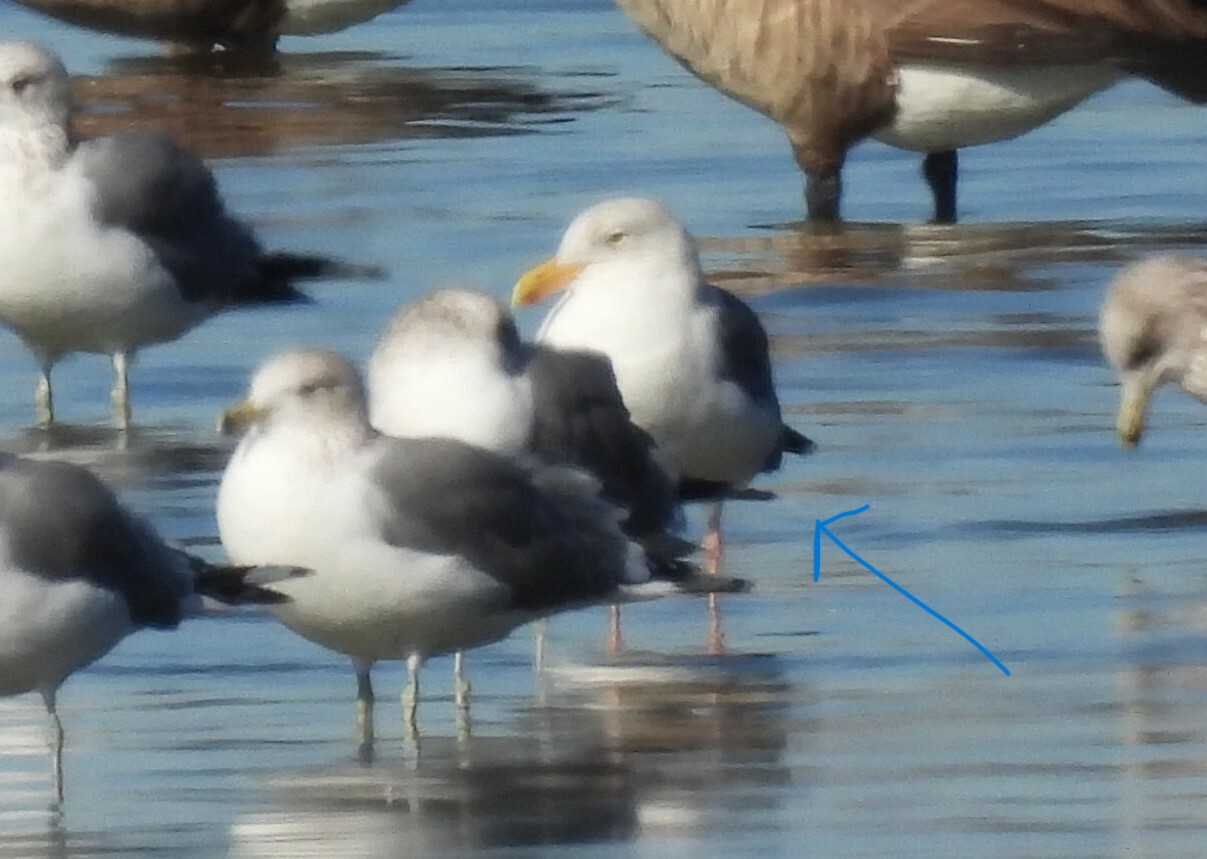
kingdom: Animalia
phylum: Chordata
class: Aves
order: Charadriiformes
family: Laridae
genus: Larus
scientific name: Larus occidentalis
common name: Western gull
